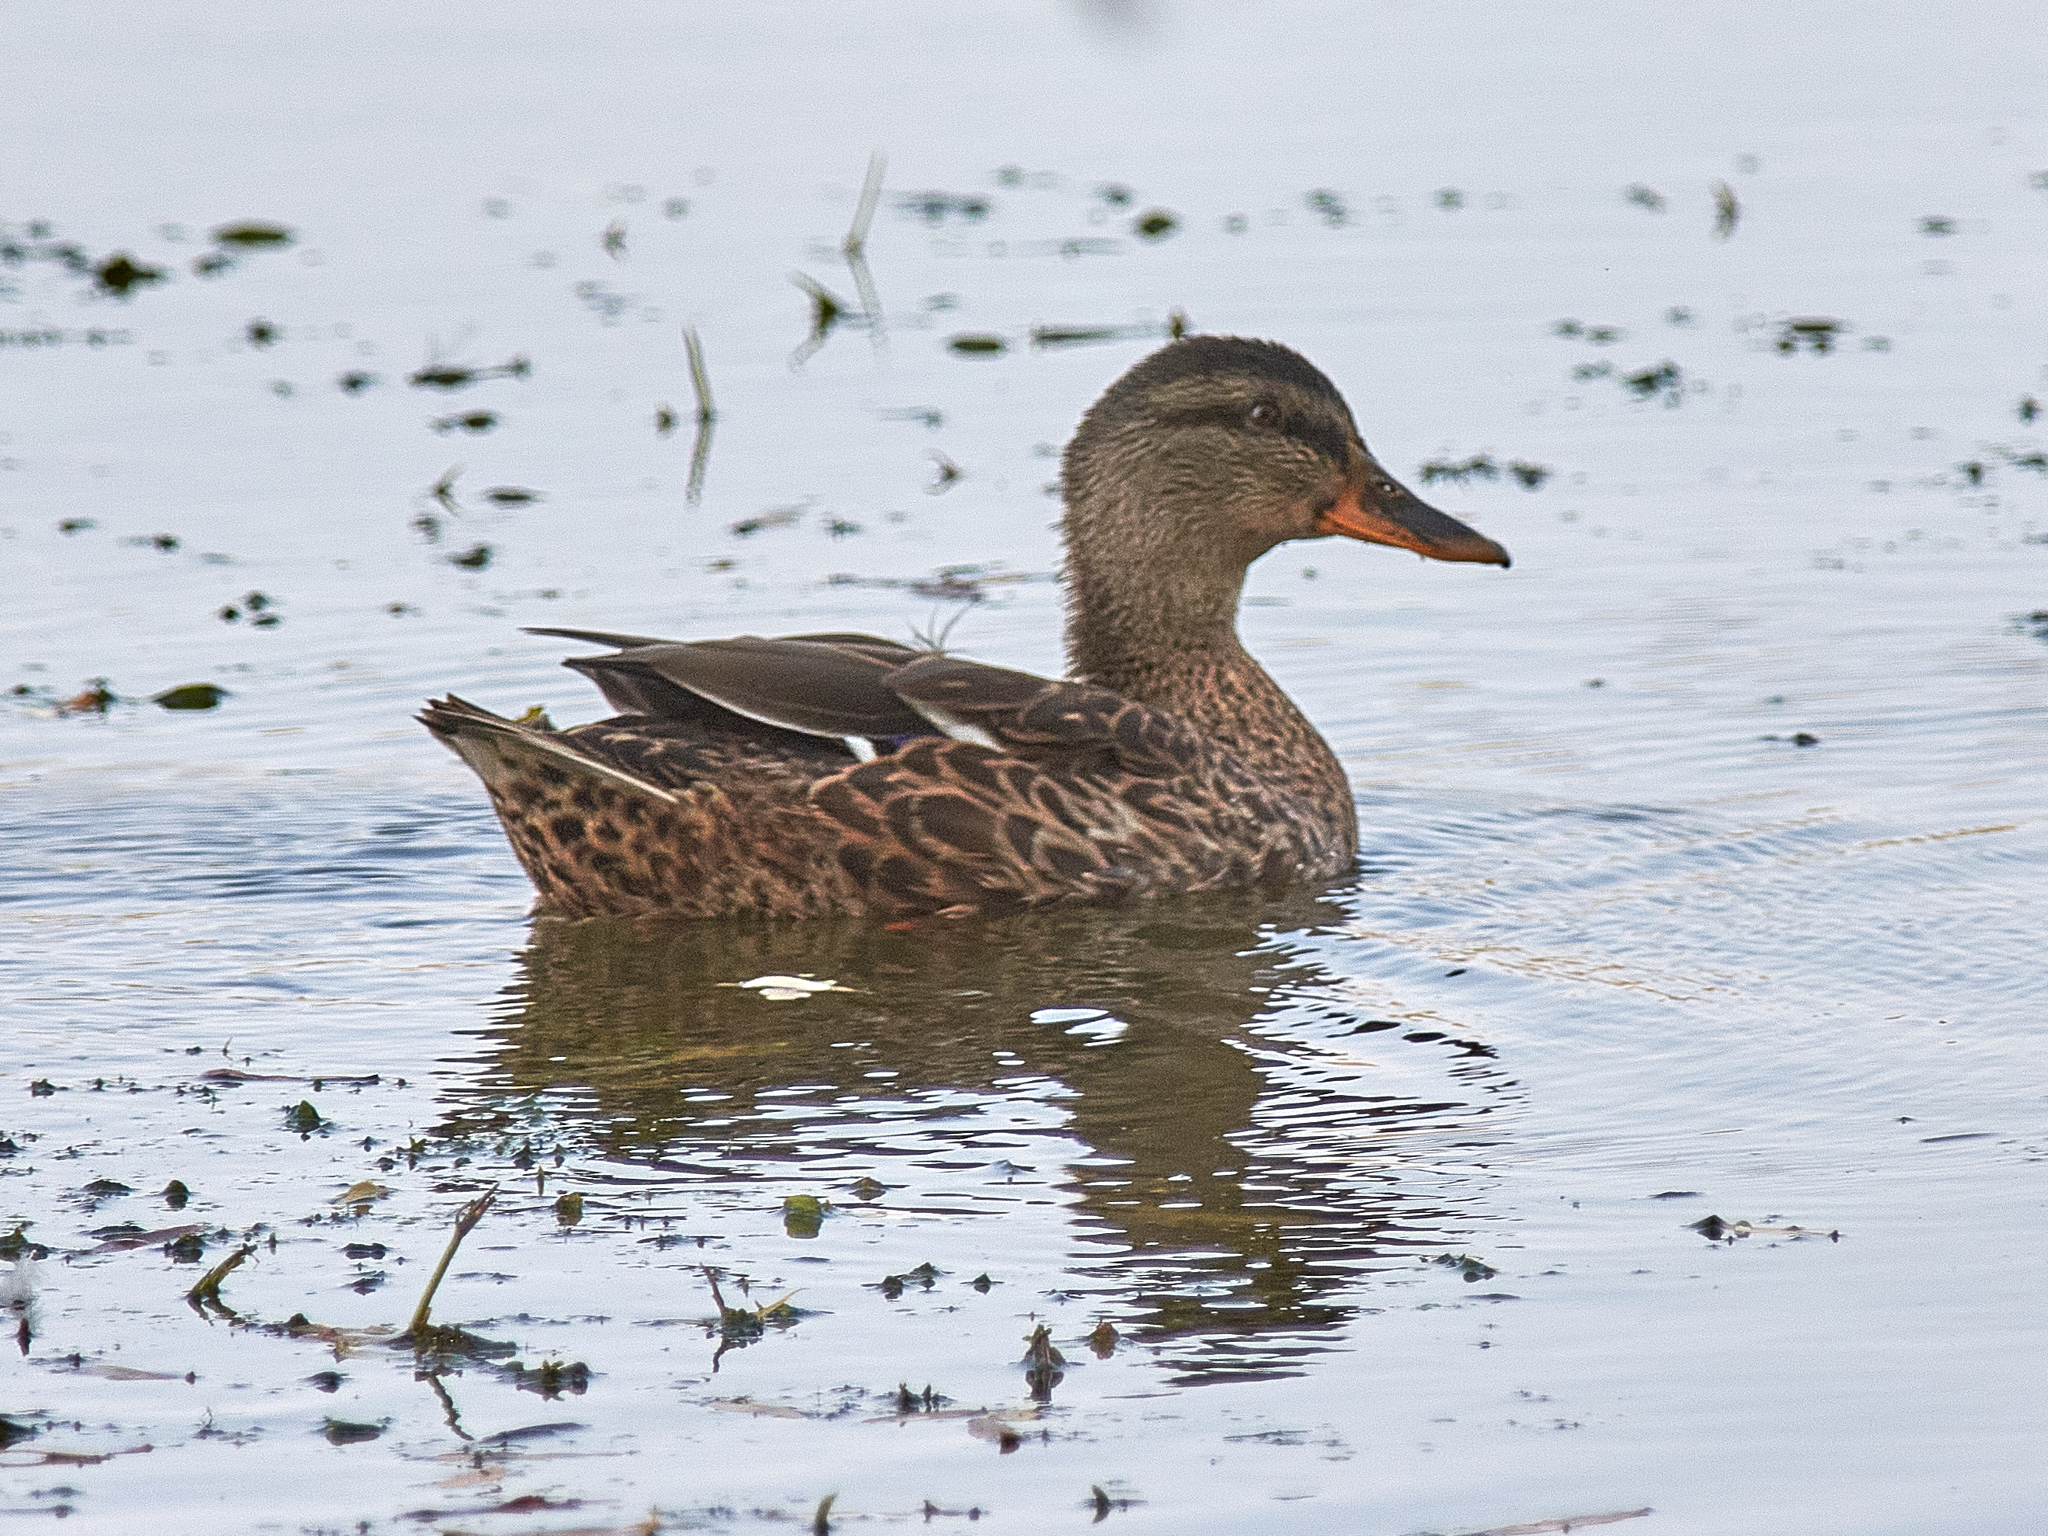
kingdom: Animalia
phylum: Chordata
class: Aves
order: Anseriformes
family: Anatidae
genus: Anas
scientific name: Anas platyrhynchos
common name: Mallard
